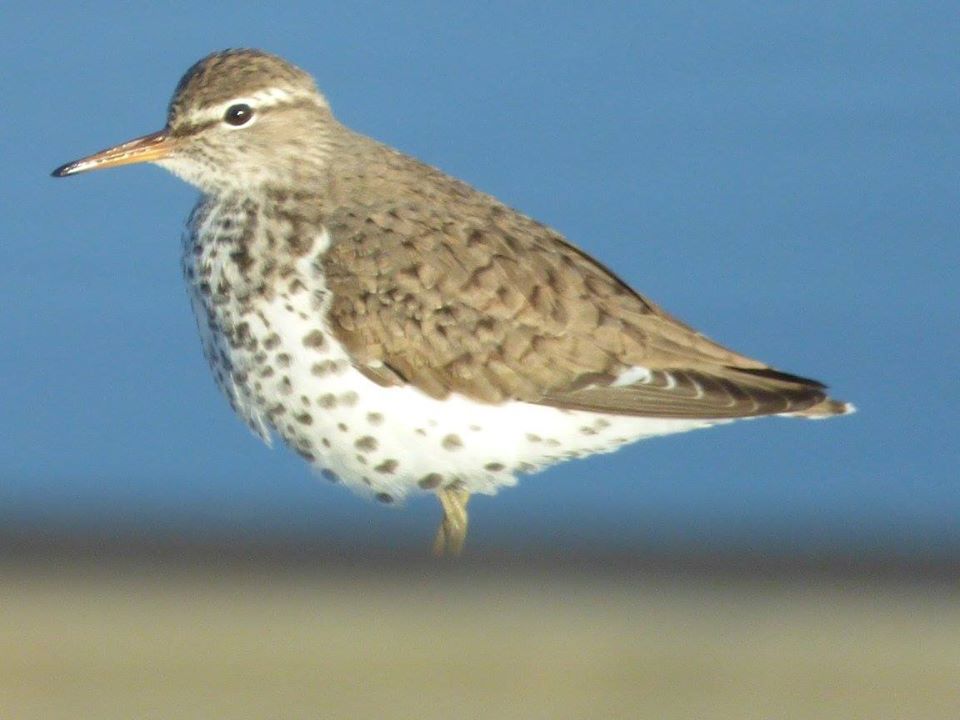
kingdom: Animalia
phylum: Chordata
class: Aves
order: Charadriiformes
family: Scolopacidae
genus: Actitis
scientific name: Actitis macularius
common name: Spotted sandpiper
